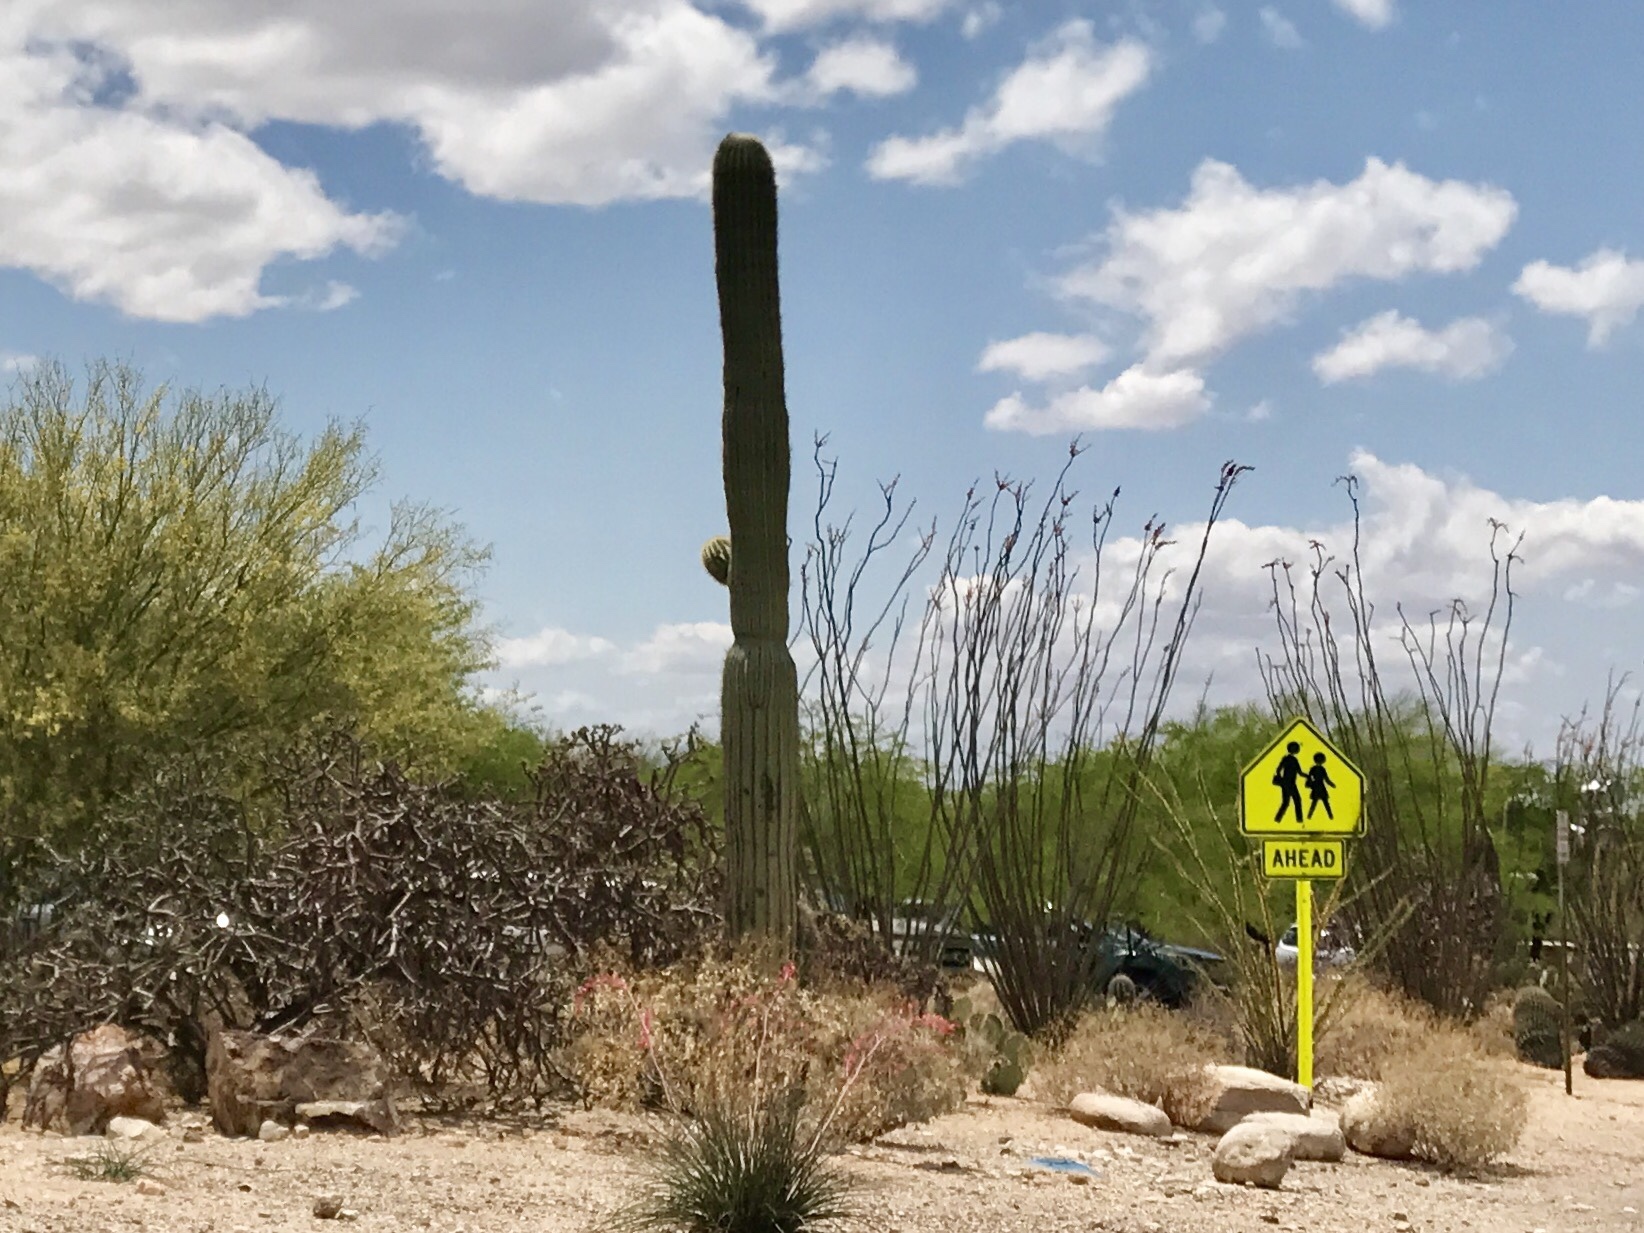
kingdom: Plantae
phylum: Tracheophyta
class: Magnoliopsida
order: Caryophyllales
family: Cactaceae
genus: Carnegiea
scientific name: Carnegiea gigantea
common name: Saguaro
